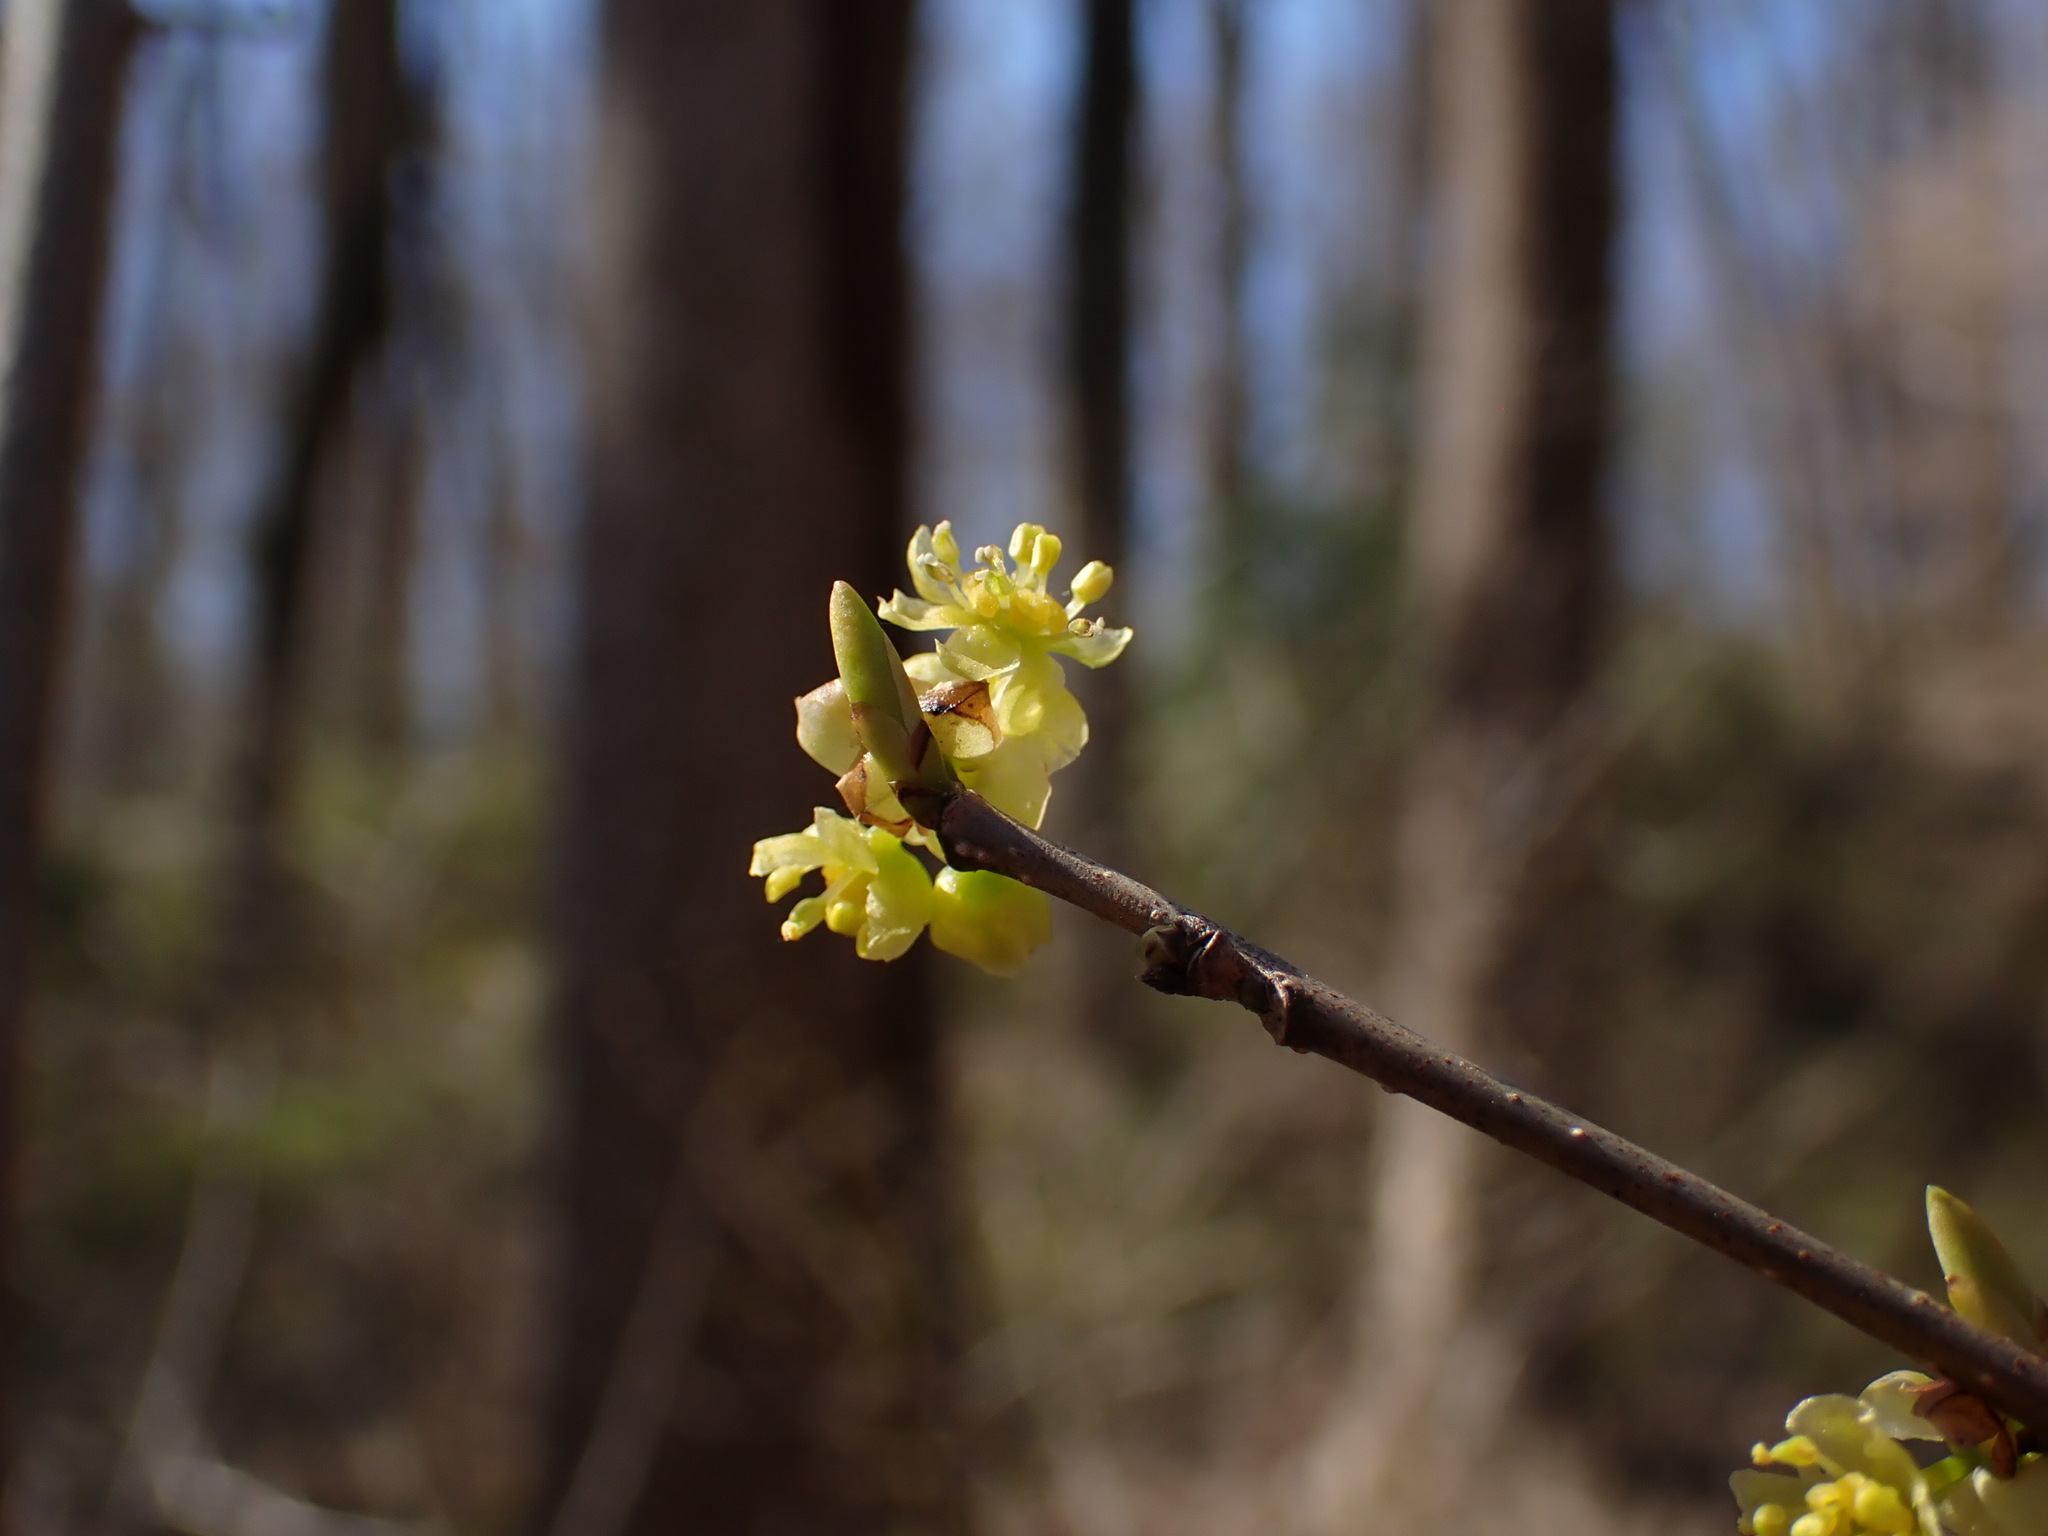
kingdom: Plantae
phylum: Tracheophyta
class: Magnoliopsida
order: Laurales
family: Lauraceae
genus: Lindera
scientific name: Lindera benzoin
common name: Spicebush
